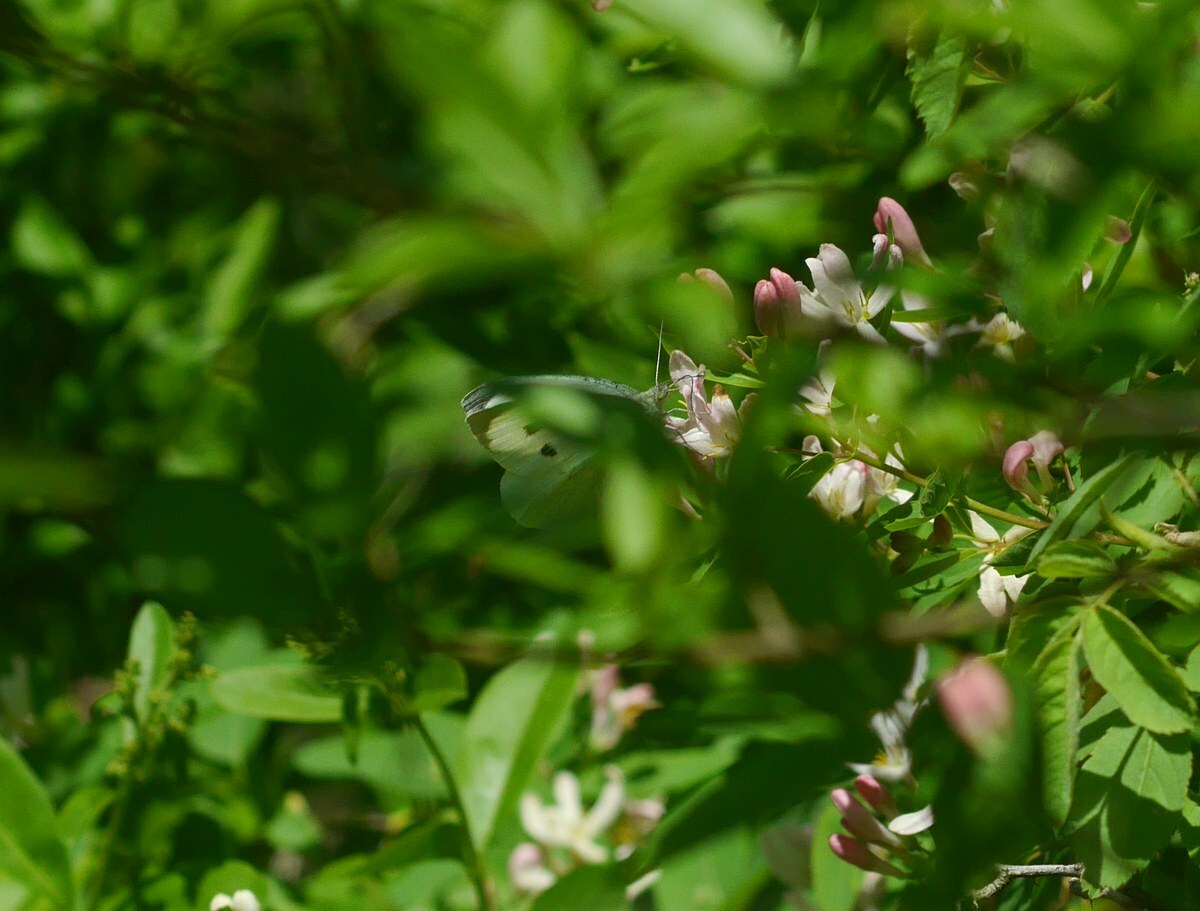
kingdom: Animalia
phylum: Arthropoda
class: Insecta
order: Lepidoptera
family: Pieridae
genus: Pieris
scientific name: Pieris brassicae
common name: Large white
